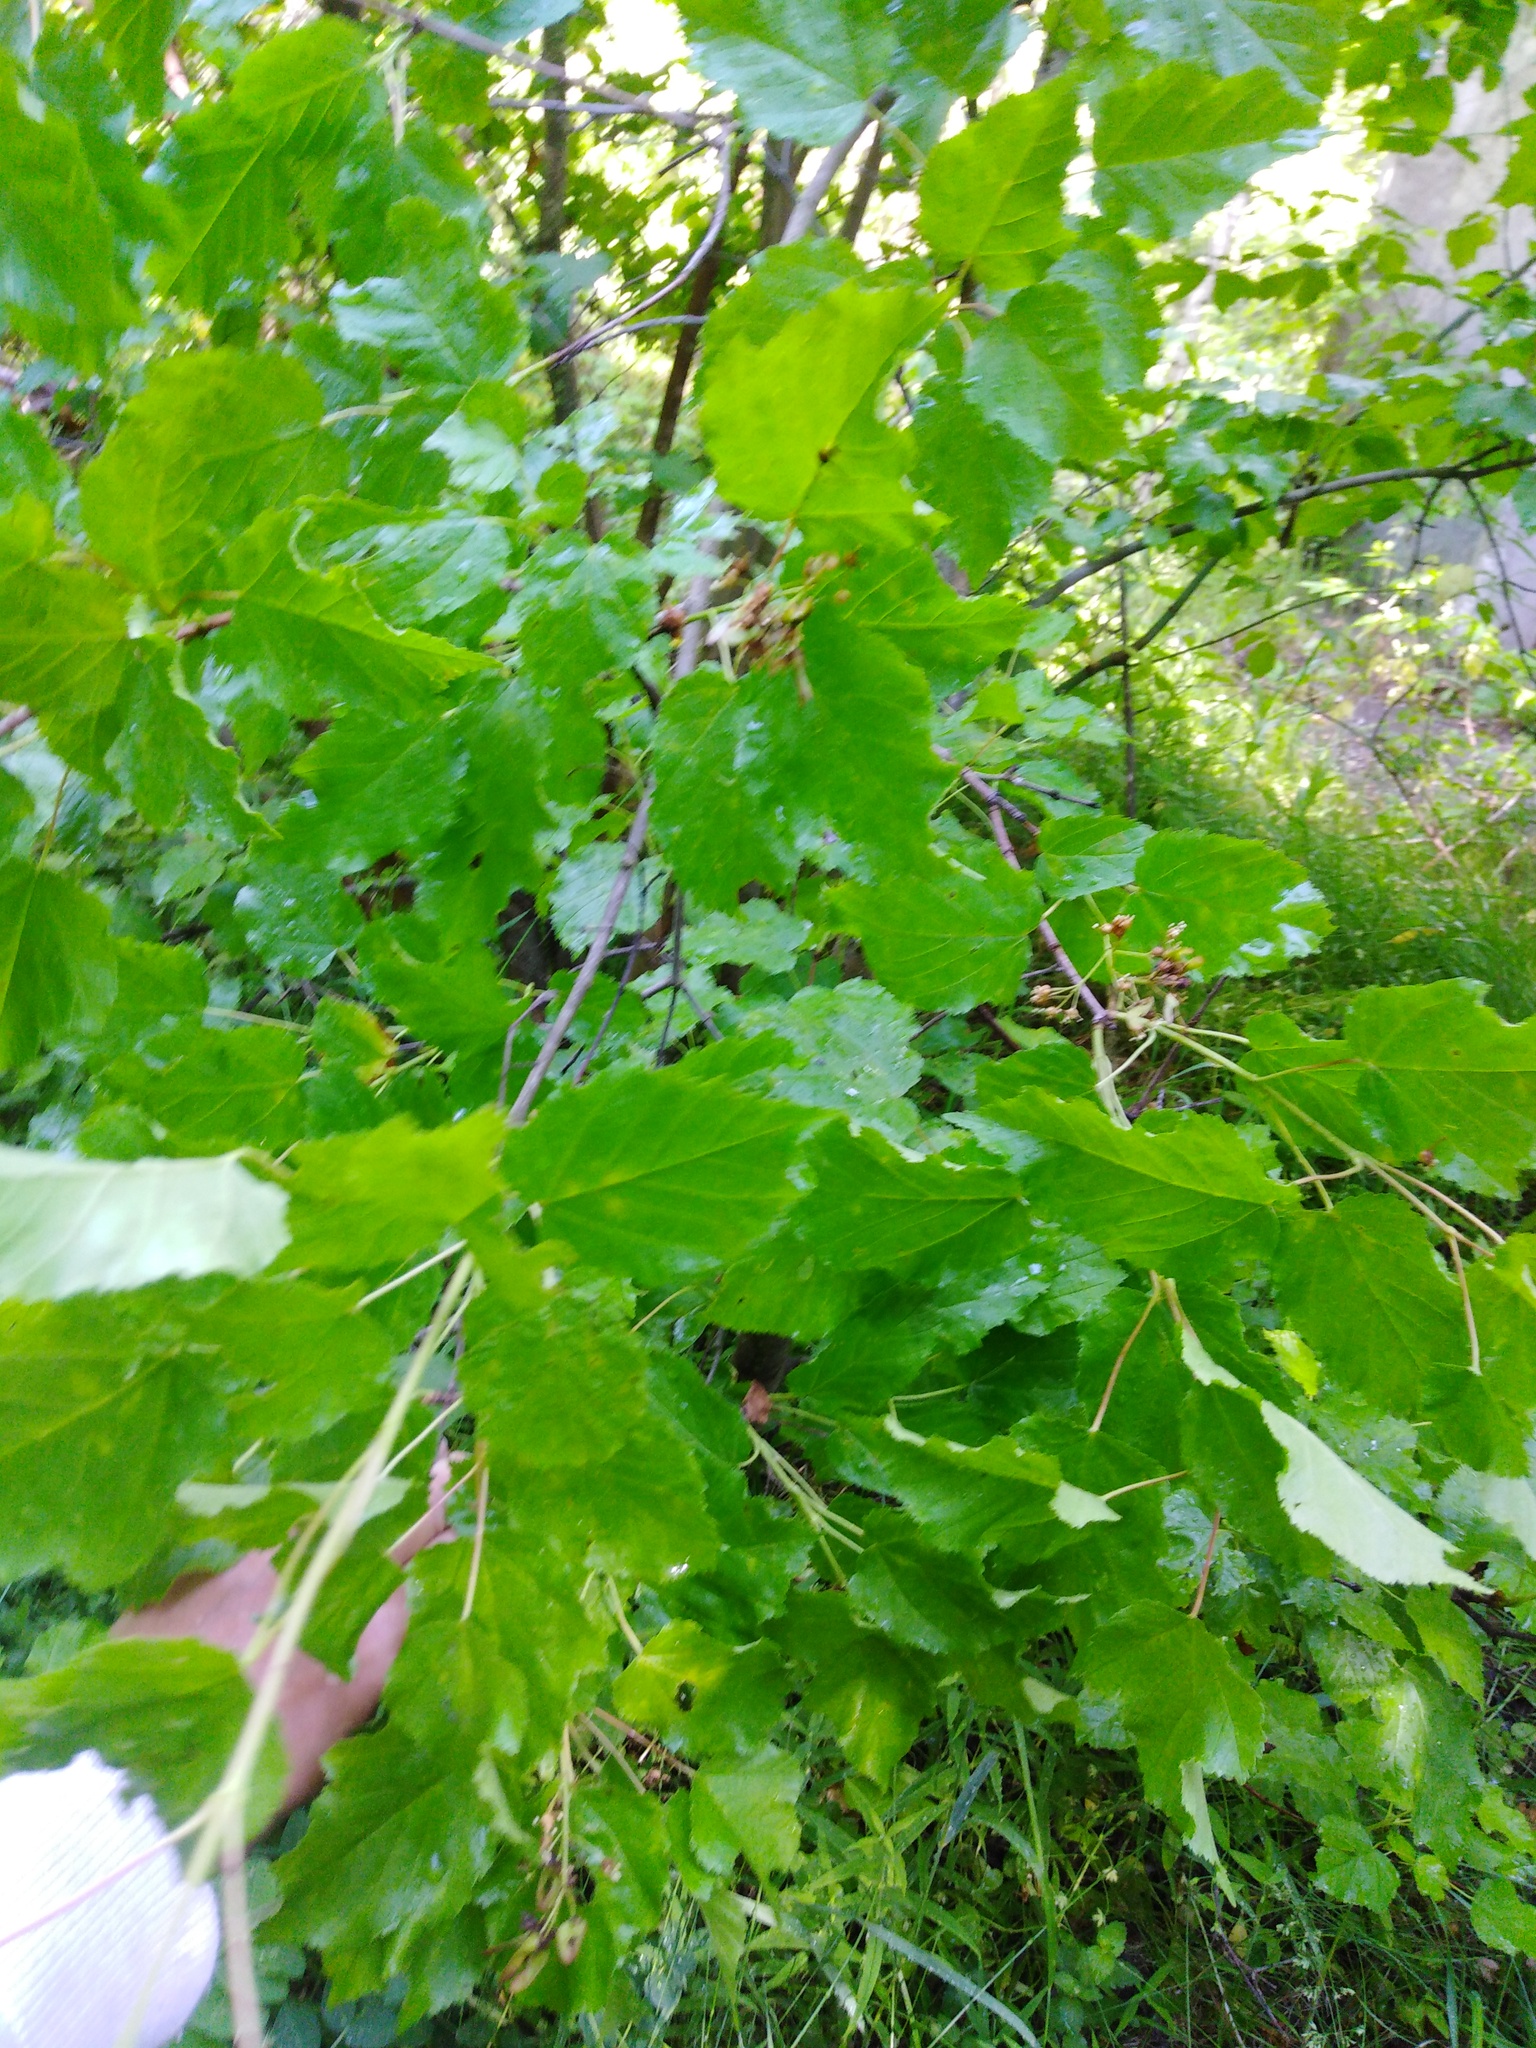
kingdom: Plantae
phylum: Tracheophyta
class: Magnoliopsida
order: Sapindales
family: Sapindaceae
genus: Acer
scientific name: Acer tataricum
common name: Tartar maple
